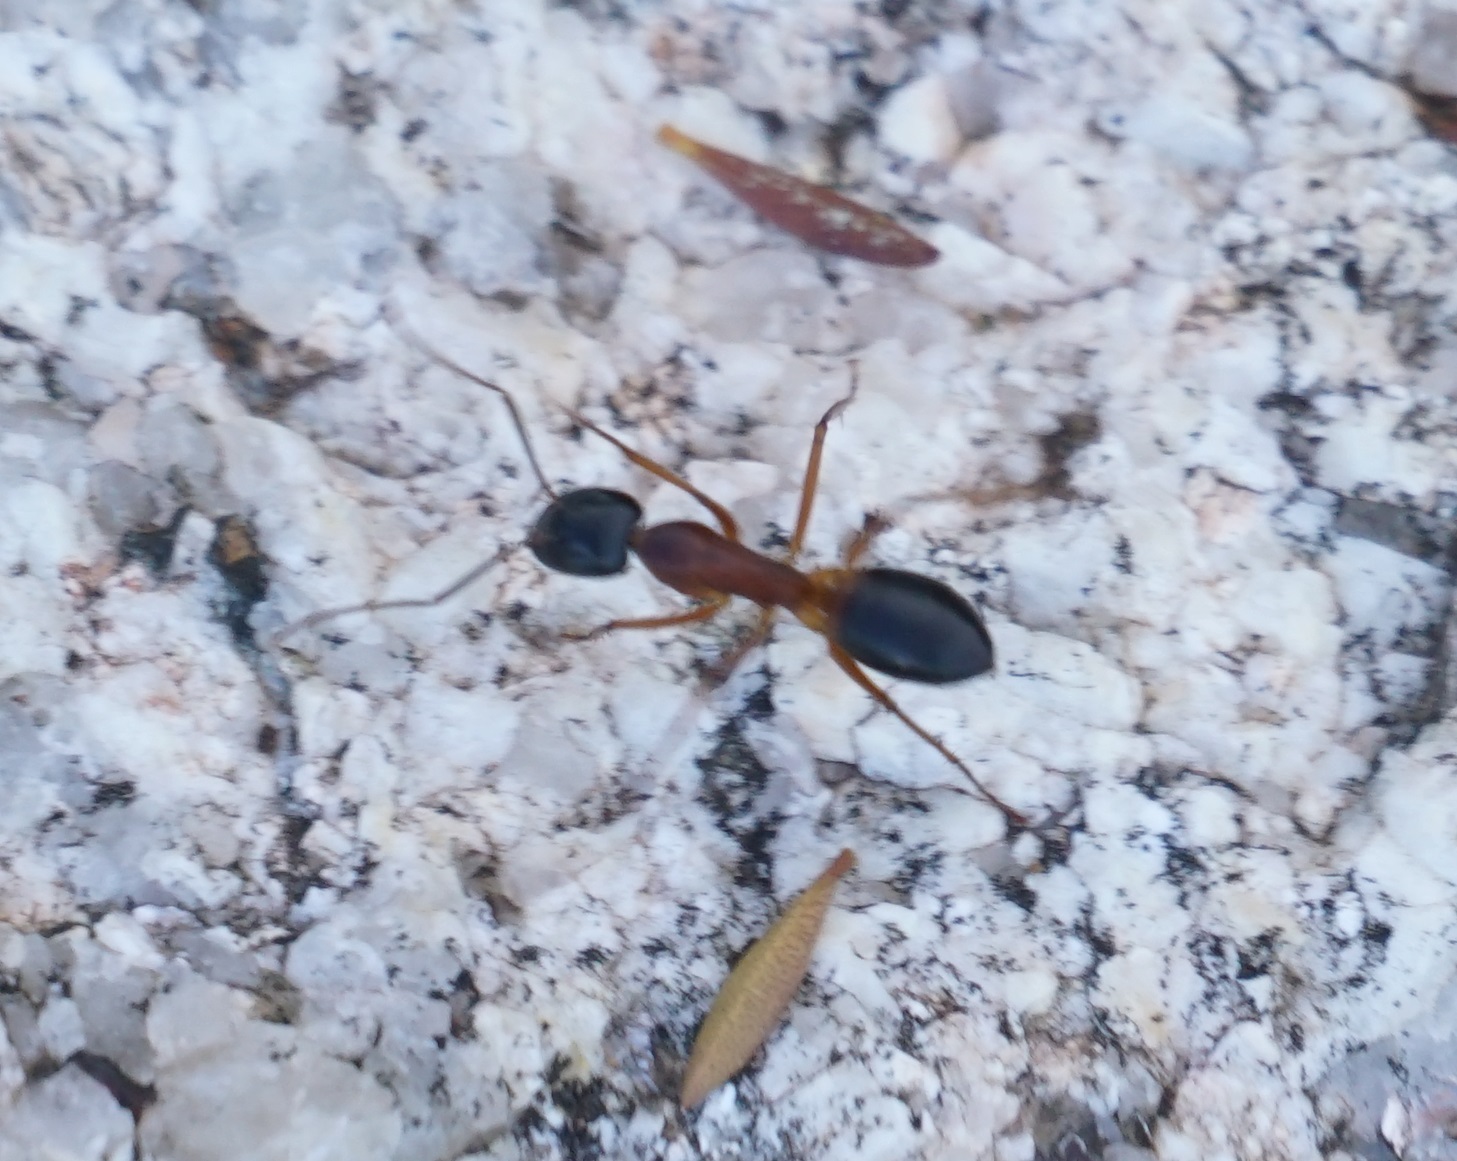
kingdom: Animalia
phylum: Arthropoda
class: Insecta
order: Hymenoptera
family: Formicidae
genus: Camponotus
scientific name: Camponotus consobrinus
